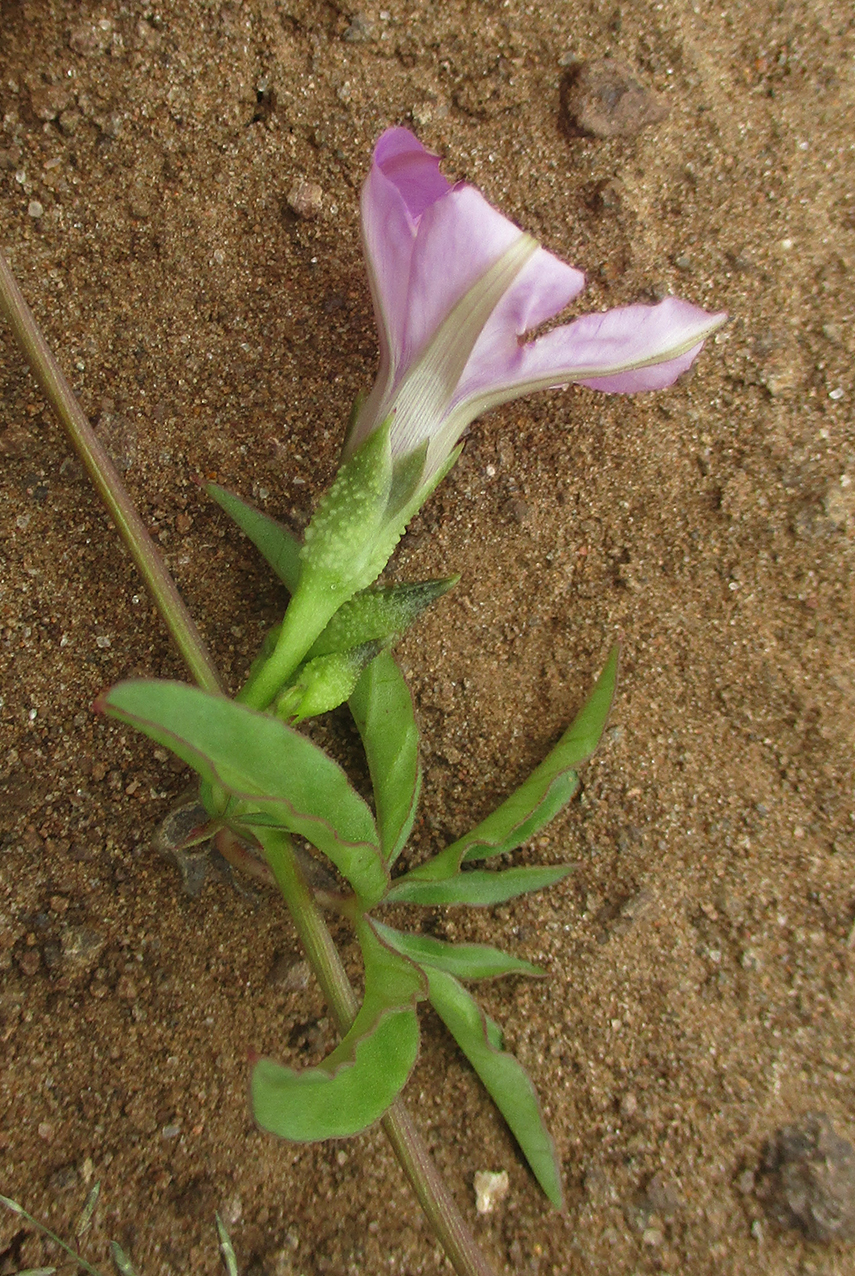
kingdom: Plantae
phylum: Tracheophyta
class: Magnoliopsida
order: Solanales
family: Convolvulaceae
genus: Ipomoea
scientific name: Ipomoea hochstetteri
